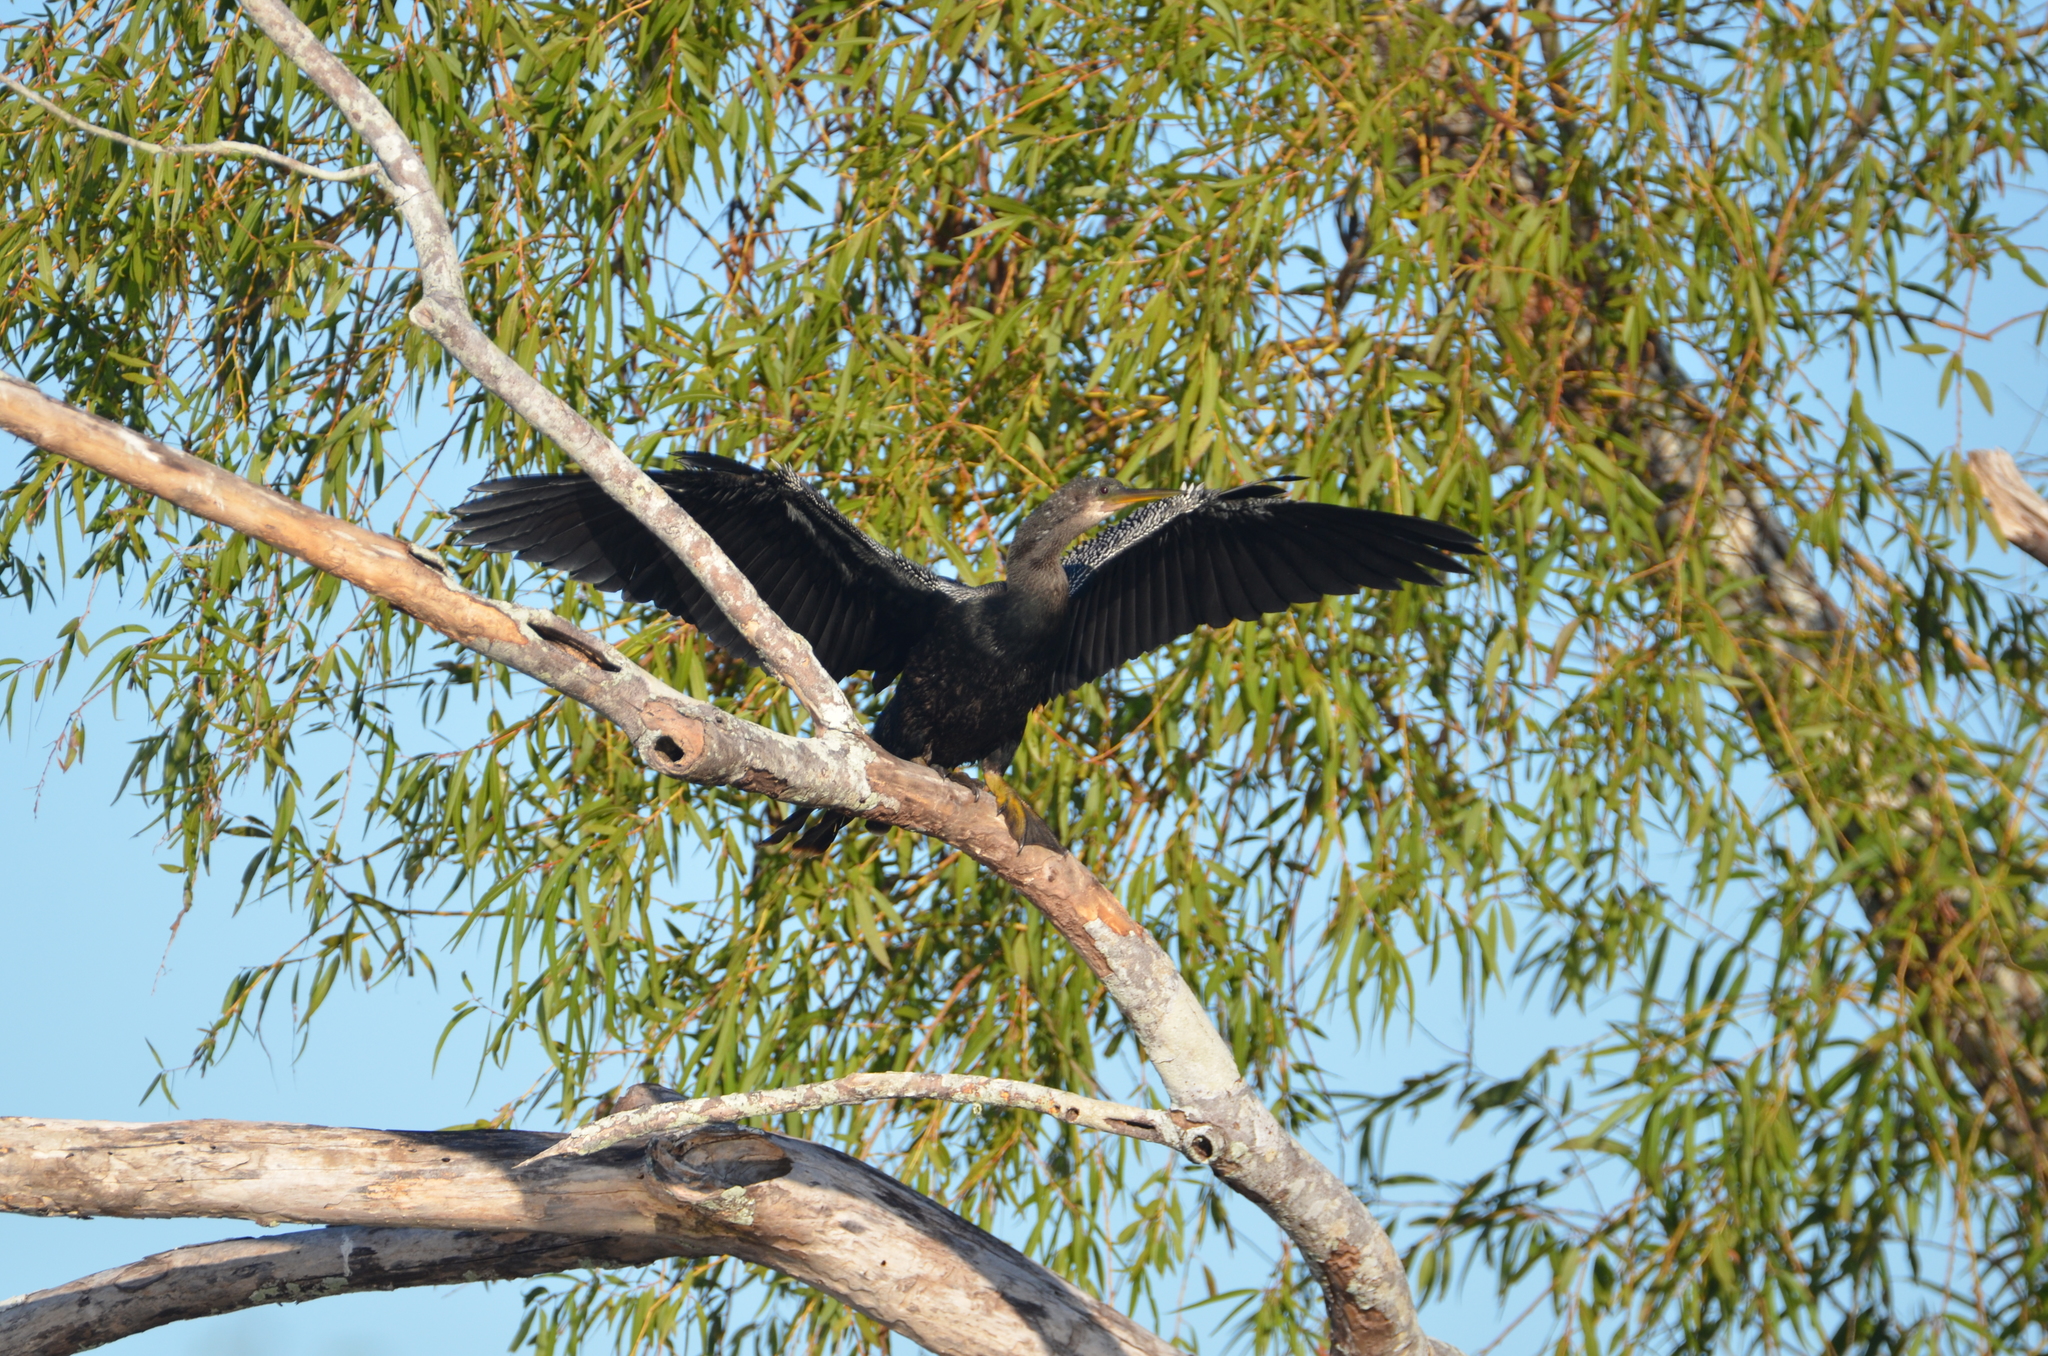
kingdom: Animalia
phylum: Chordata
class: Aves
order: Suliformes
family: Anhingidae
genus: Anhinga
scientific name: Anhinga anhinga
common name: Anhinga
